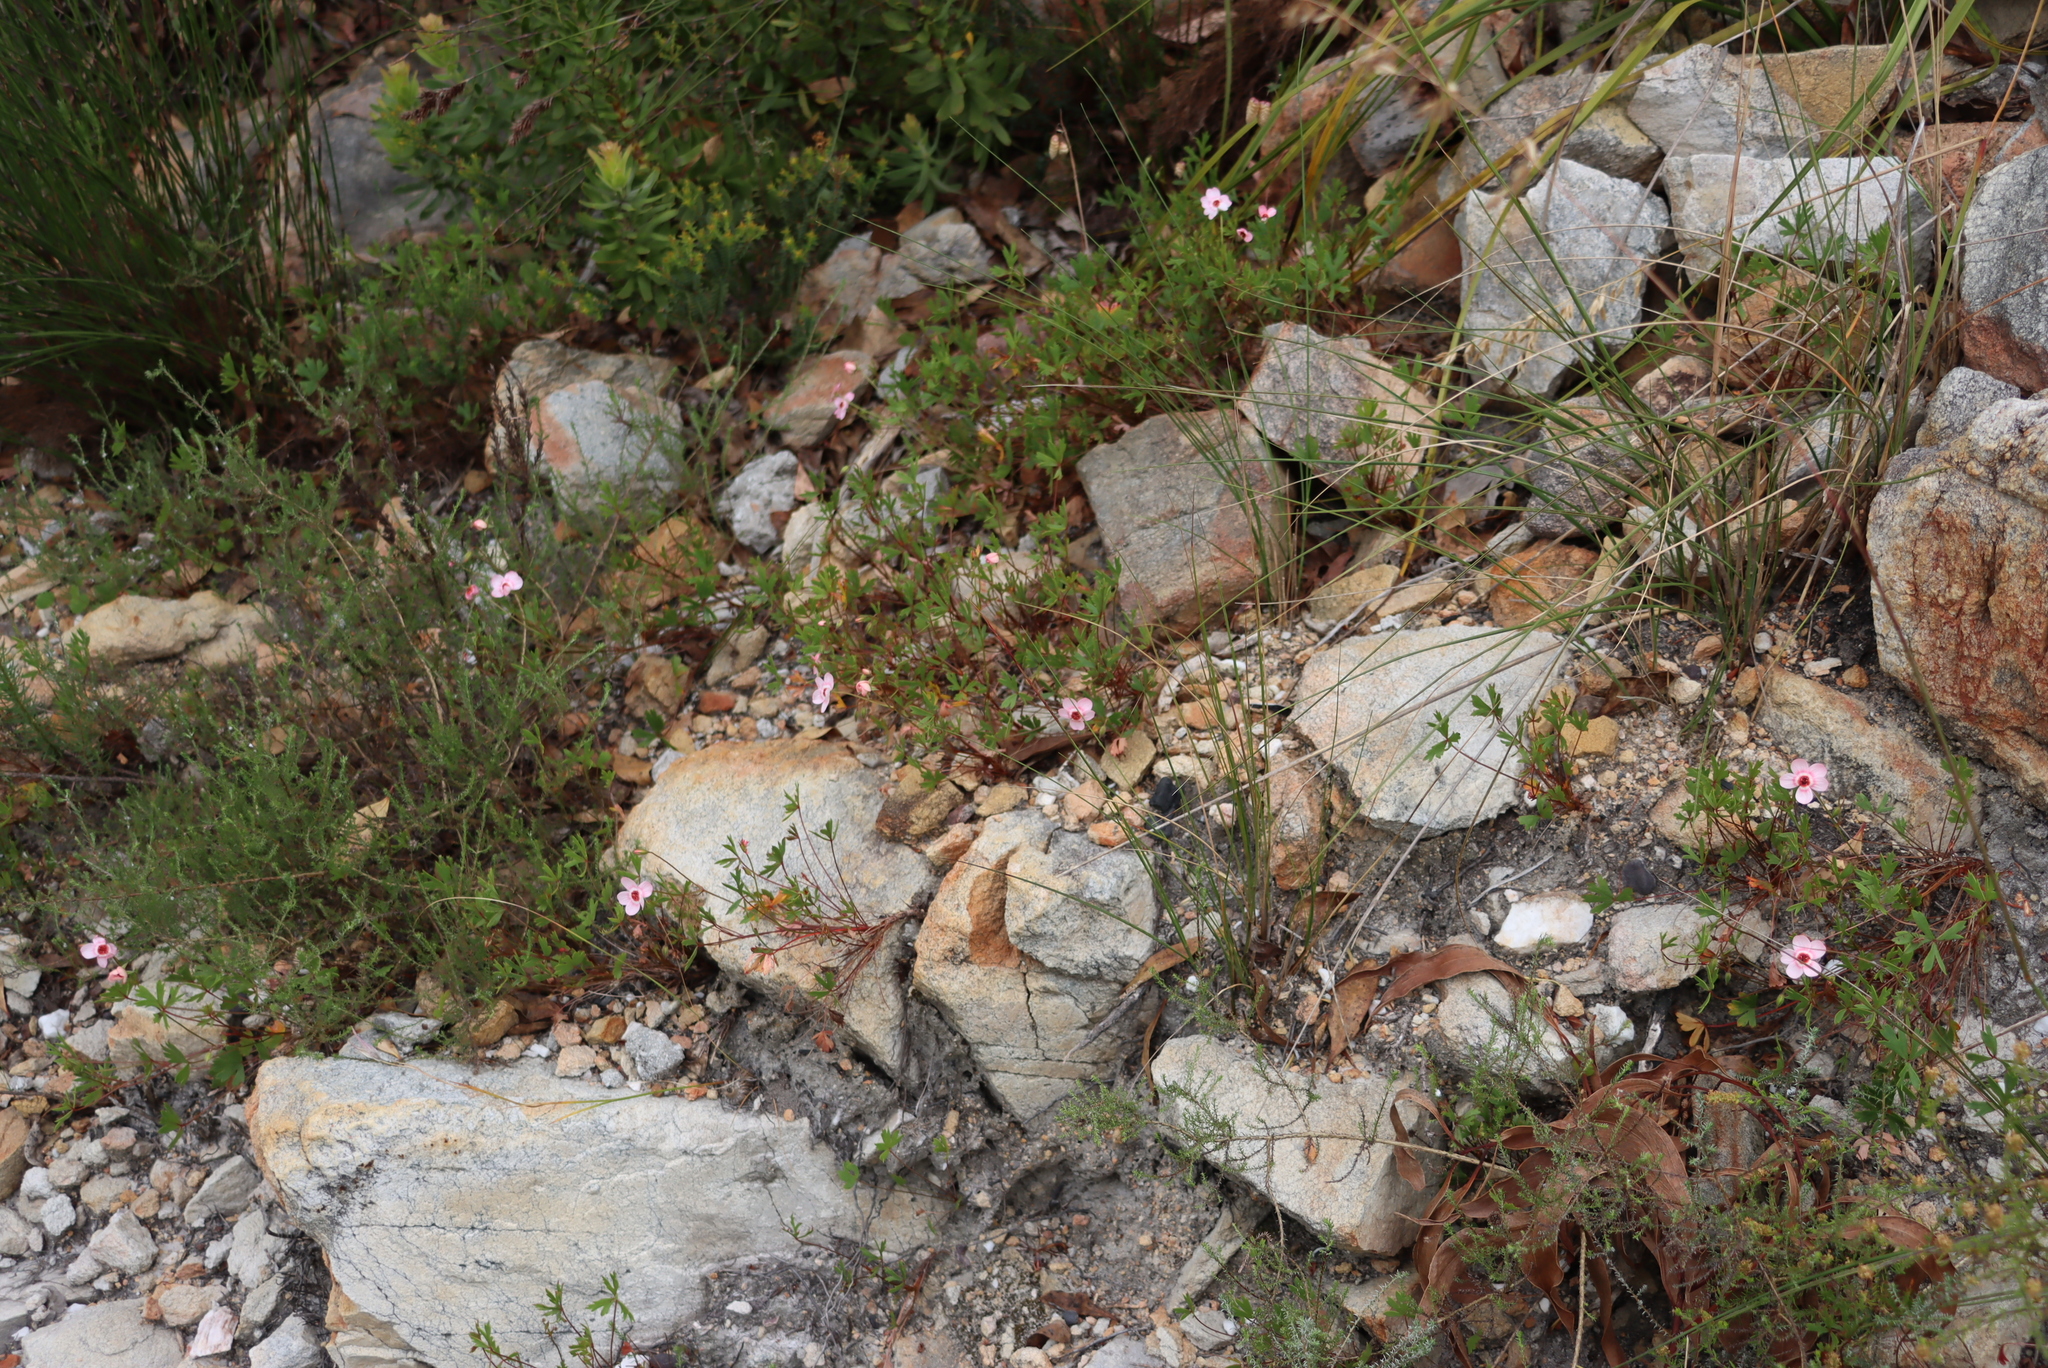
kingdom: Plantae
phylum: Tracheophyta
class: Magnoliopsida
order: Geraniales
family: Geraniaceae
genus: Pelargonium
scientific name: Pelargonium incarnatum
